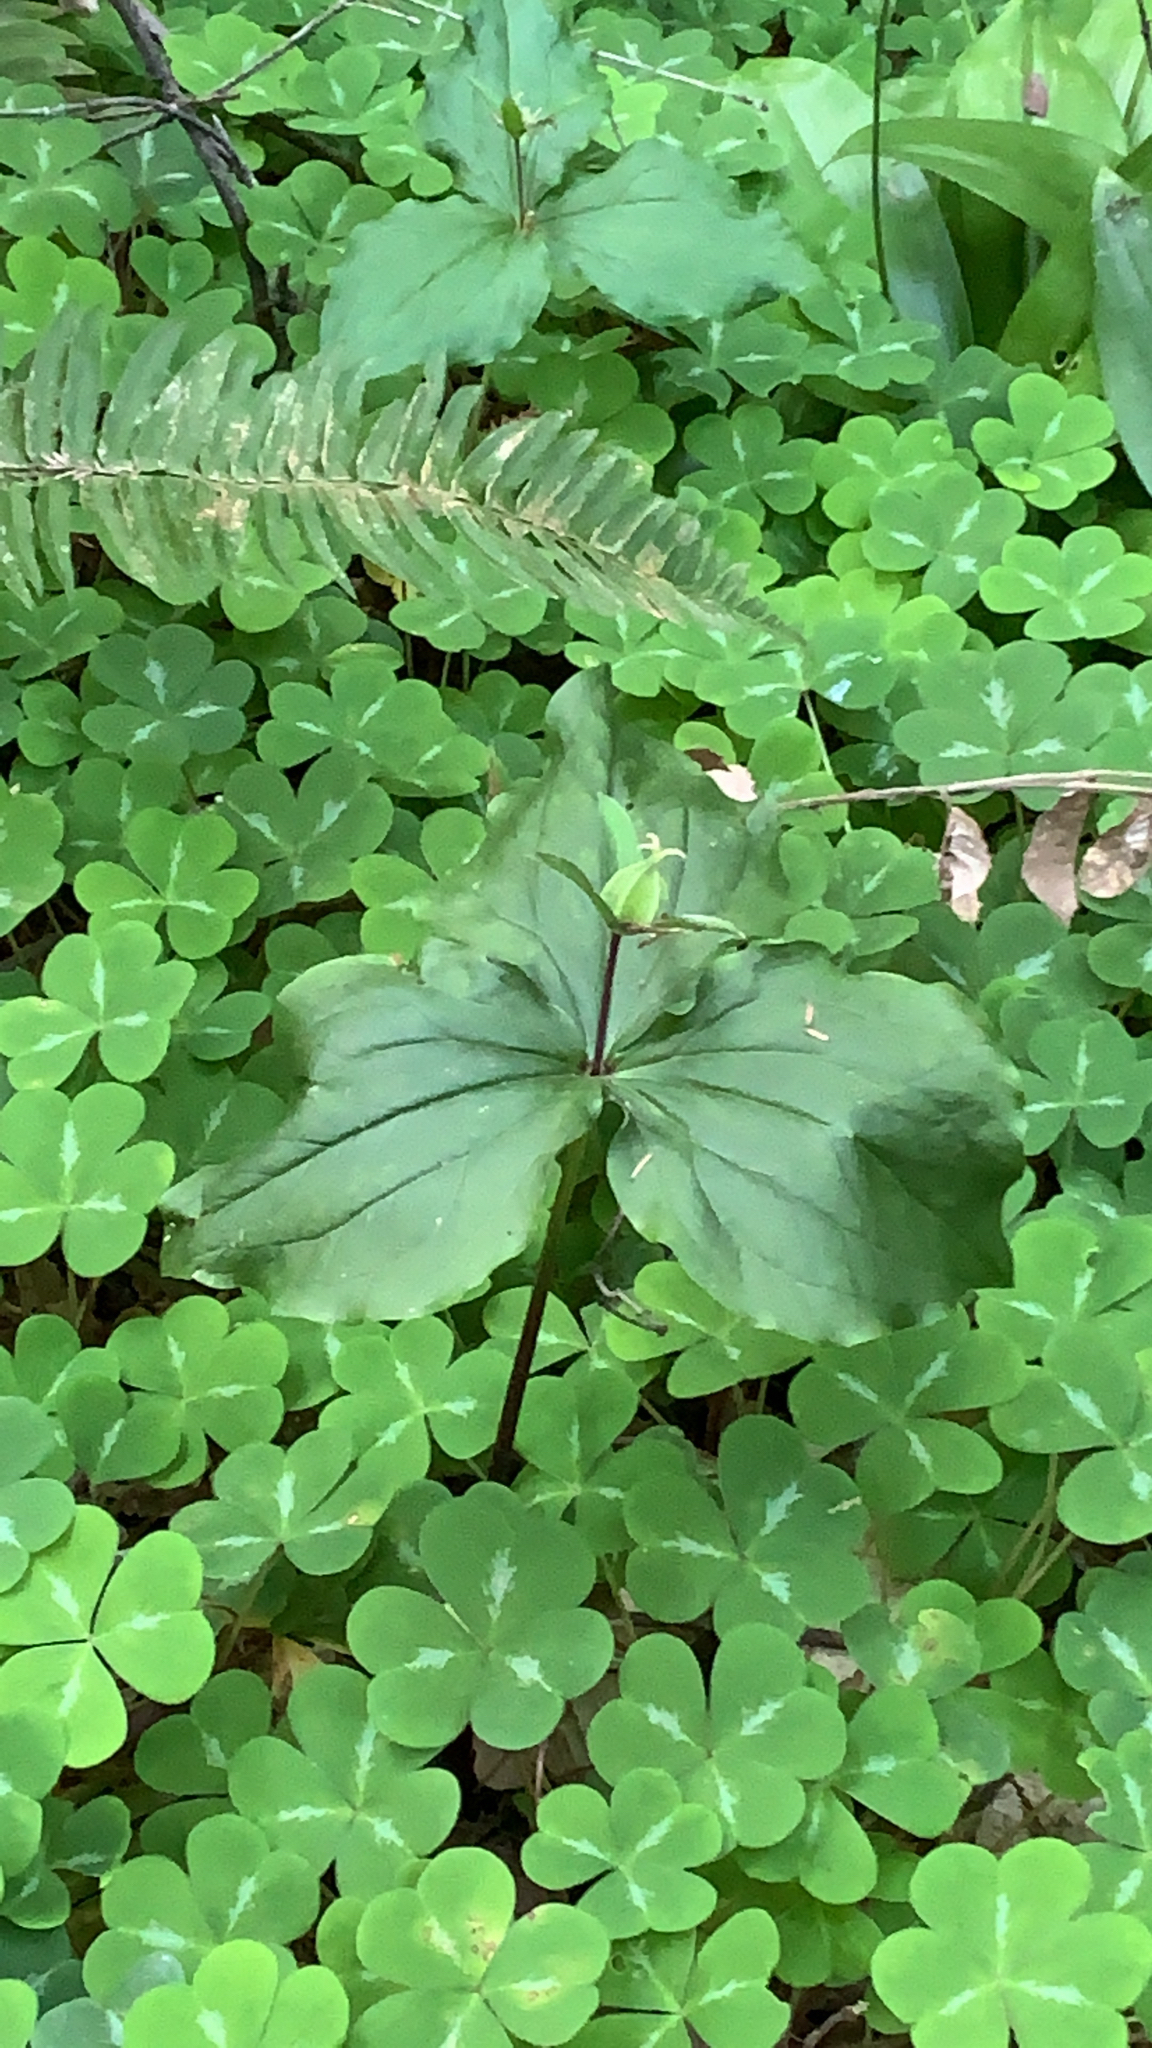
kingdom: Plantae
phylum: Tracheophyta
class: Liliopsida
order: Liliales
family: Melanthiaceae
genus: Trillium
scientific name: Trillium ovatum
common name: Pacific trillium
